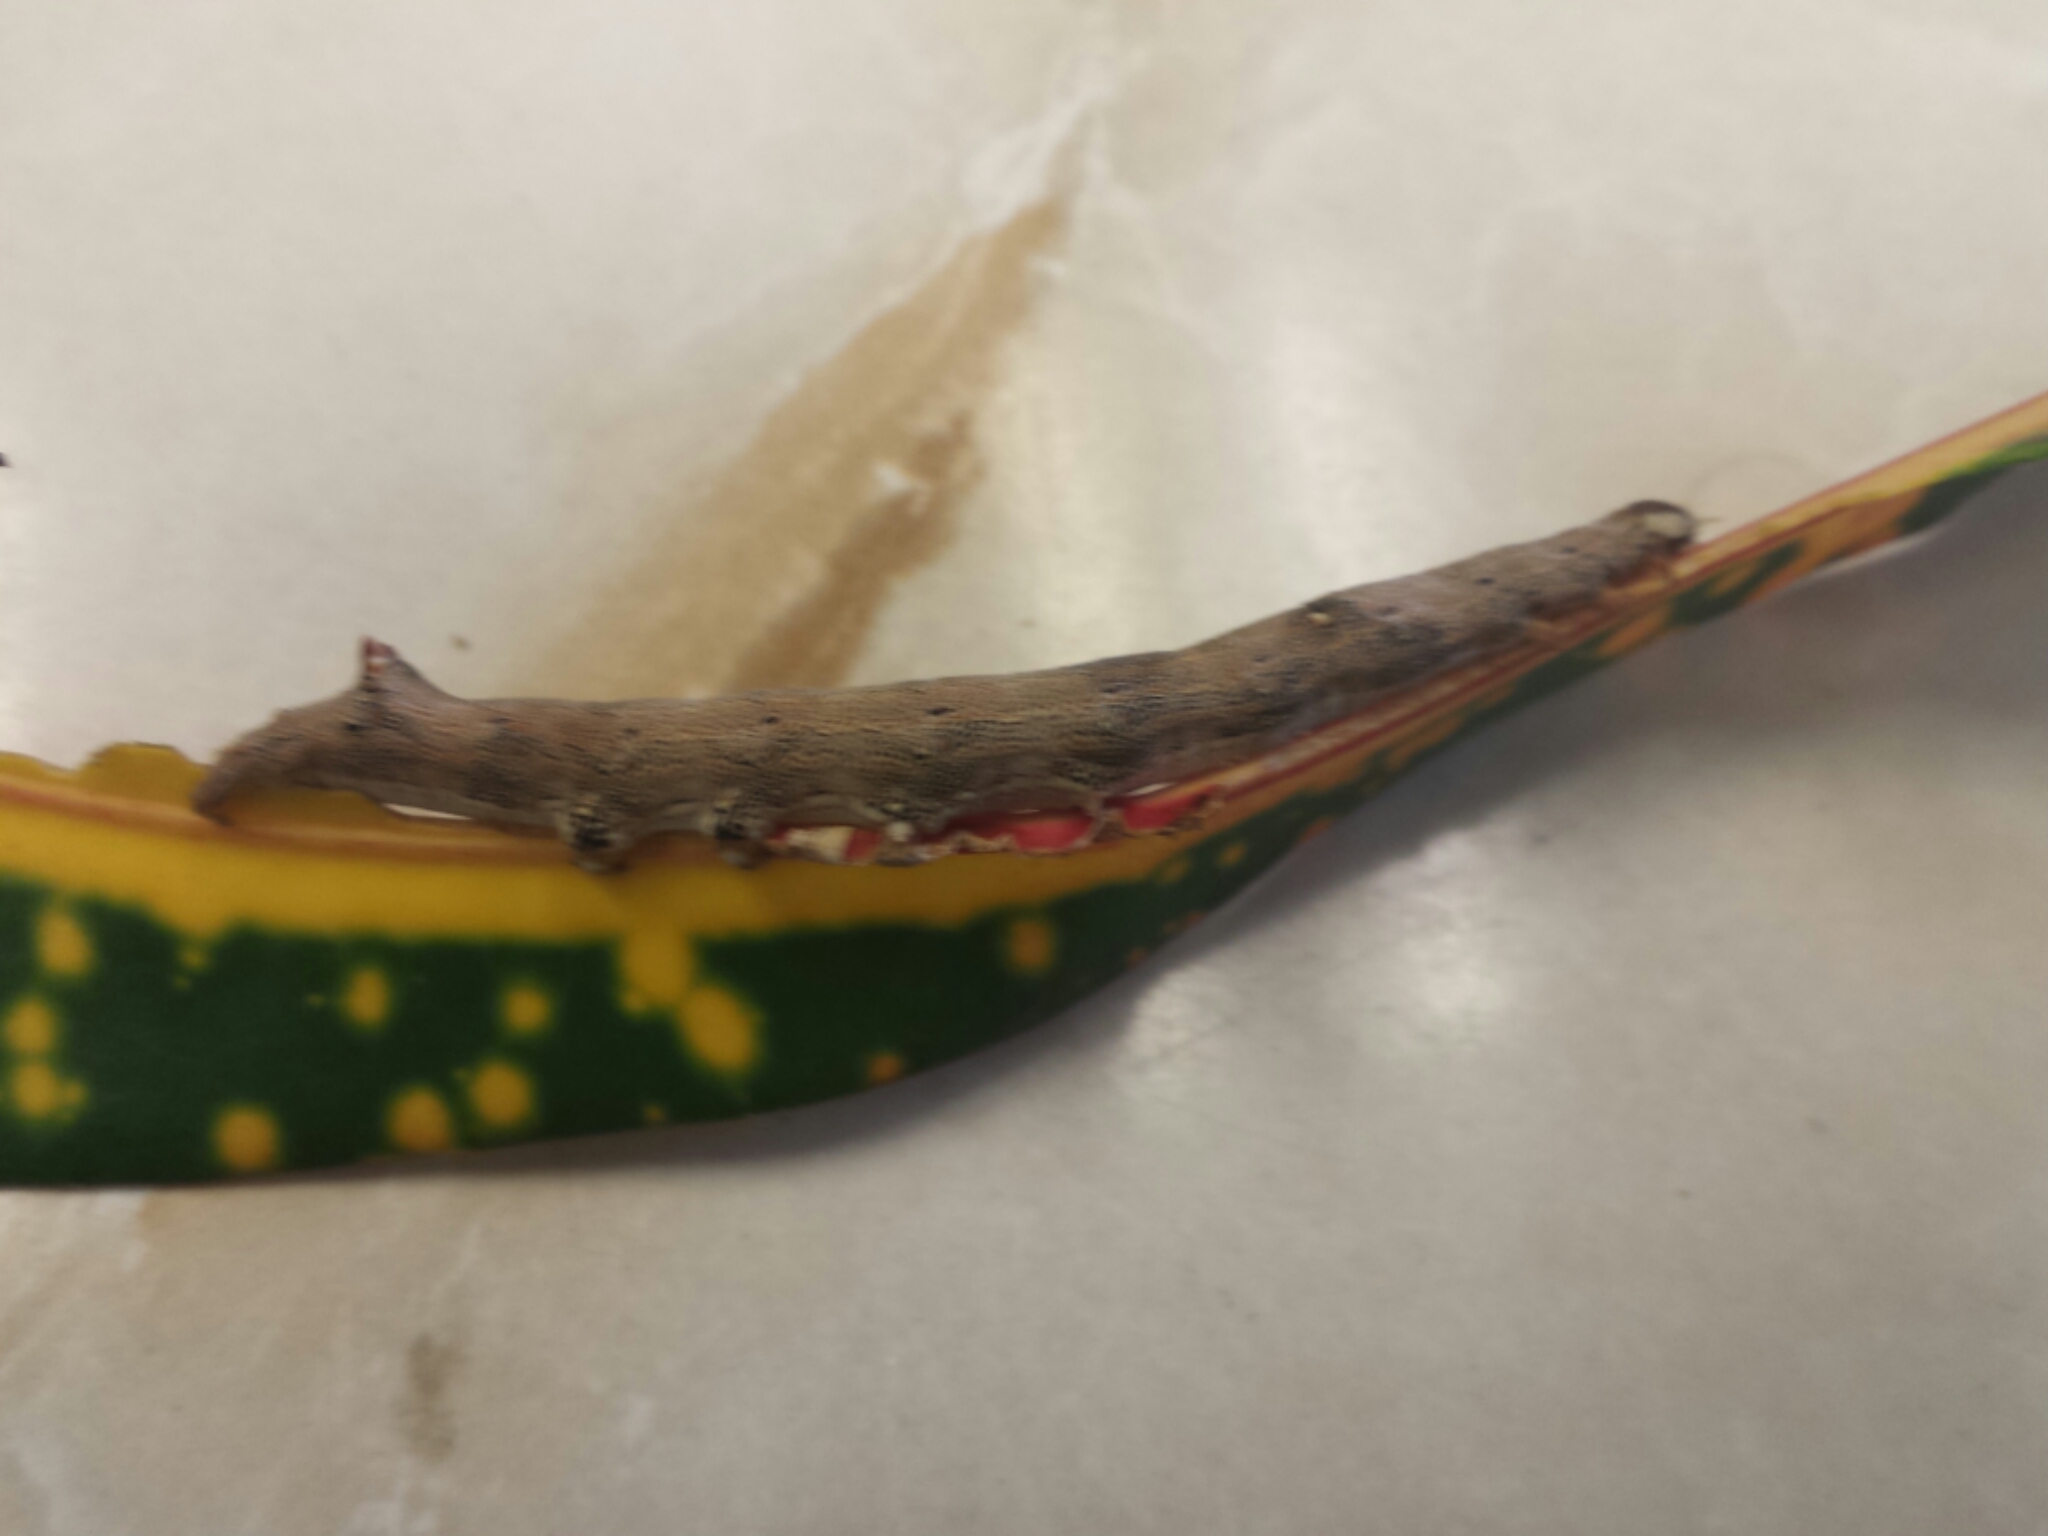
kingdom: Animalia
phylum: Arthropoda
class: Insecta
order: Lepidoptera
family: Erebidae
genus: Achaea
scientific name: Achaea janata
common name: Croton caterpillar
